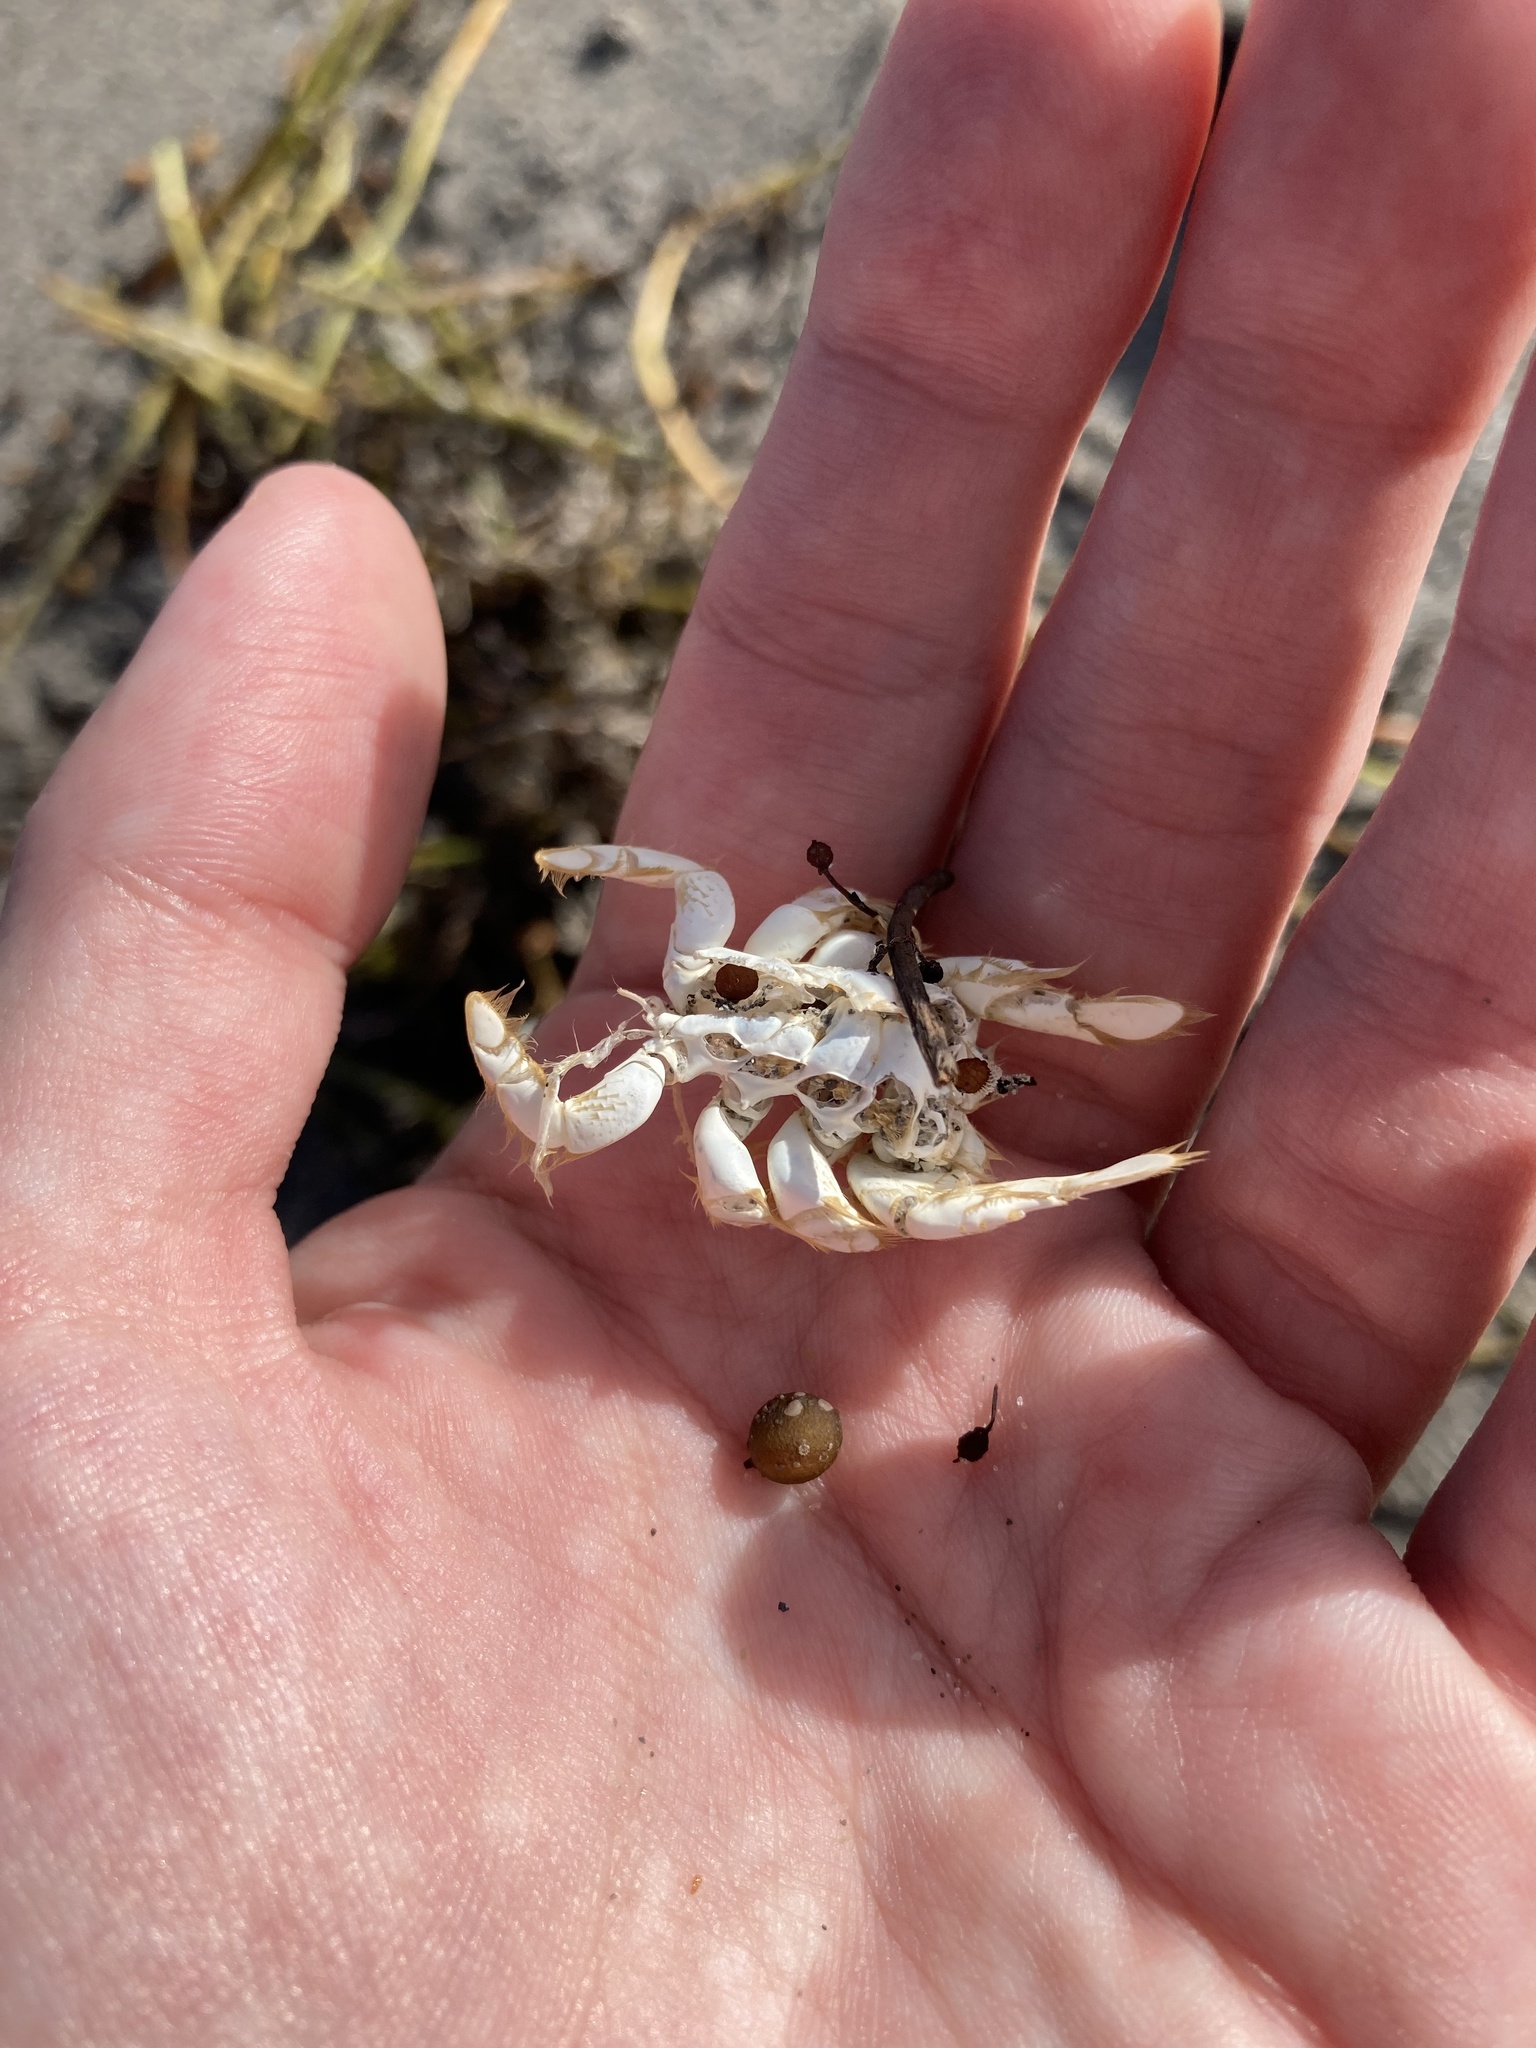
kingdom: Animalia
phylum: Arthropoda
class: Malacostraca
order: Decapoda
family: Hippidae
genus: Emerita
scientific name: Emerita talpoida
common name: Atlantic sand crab
